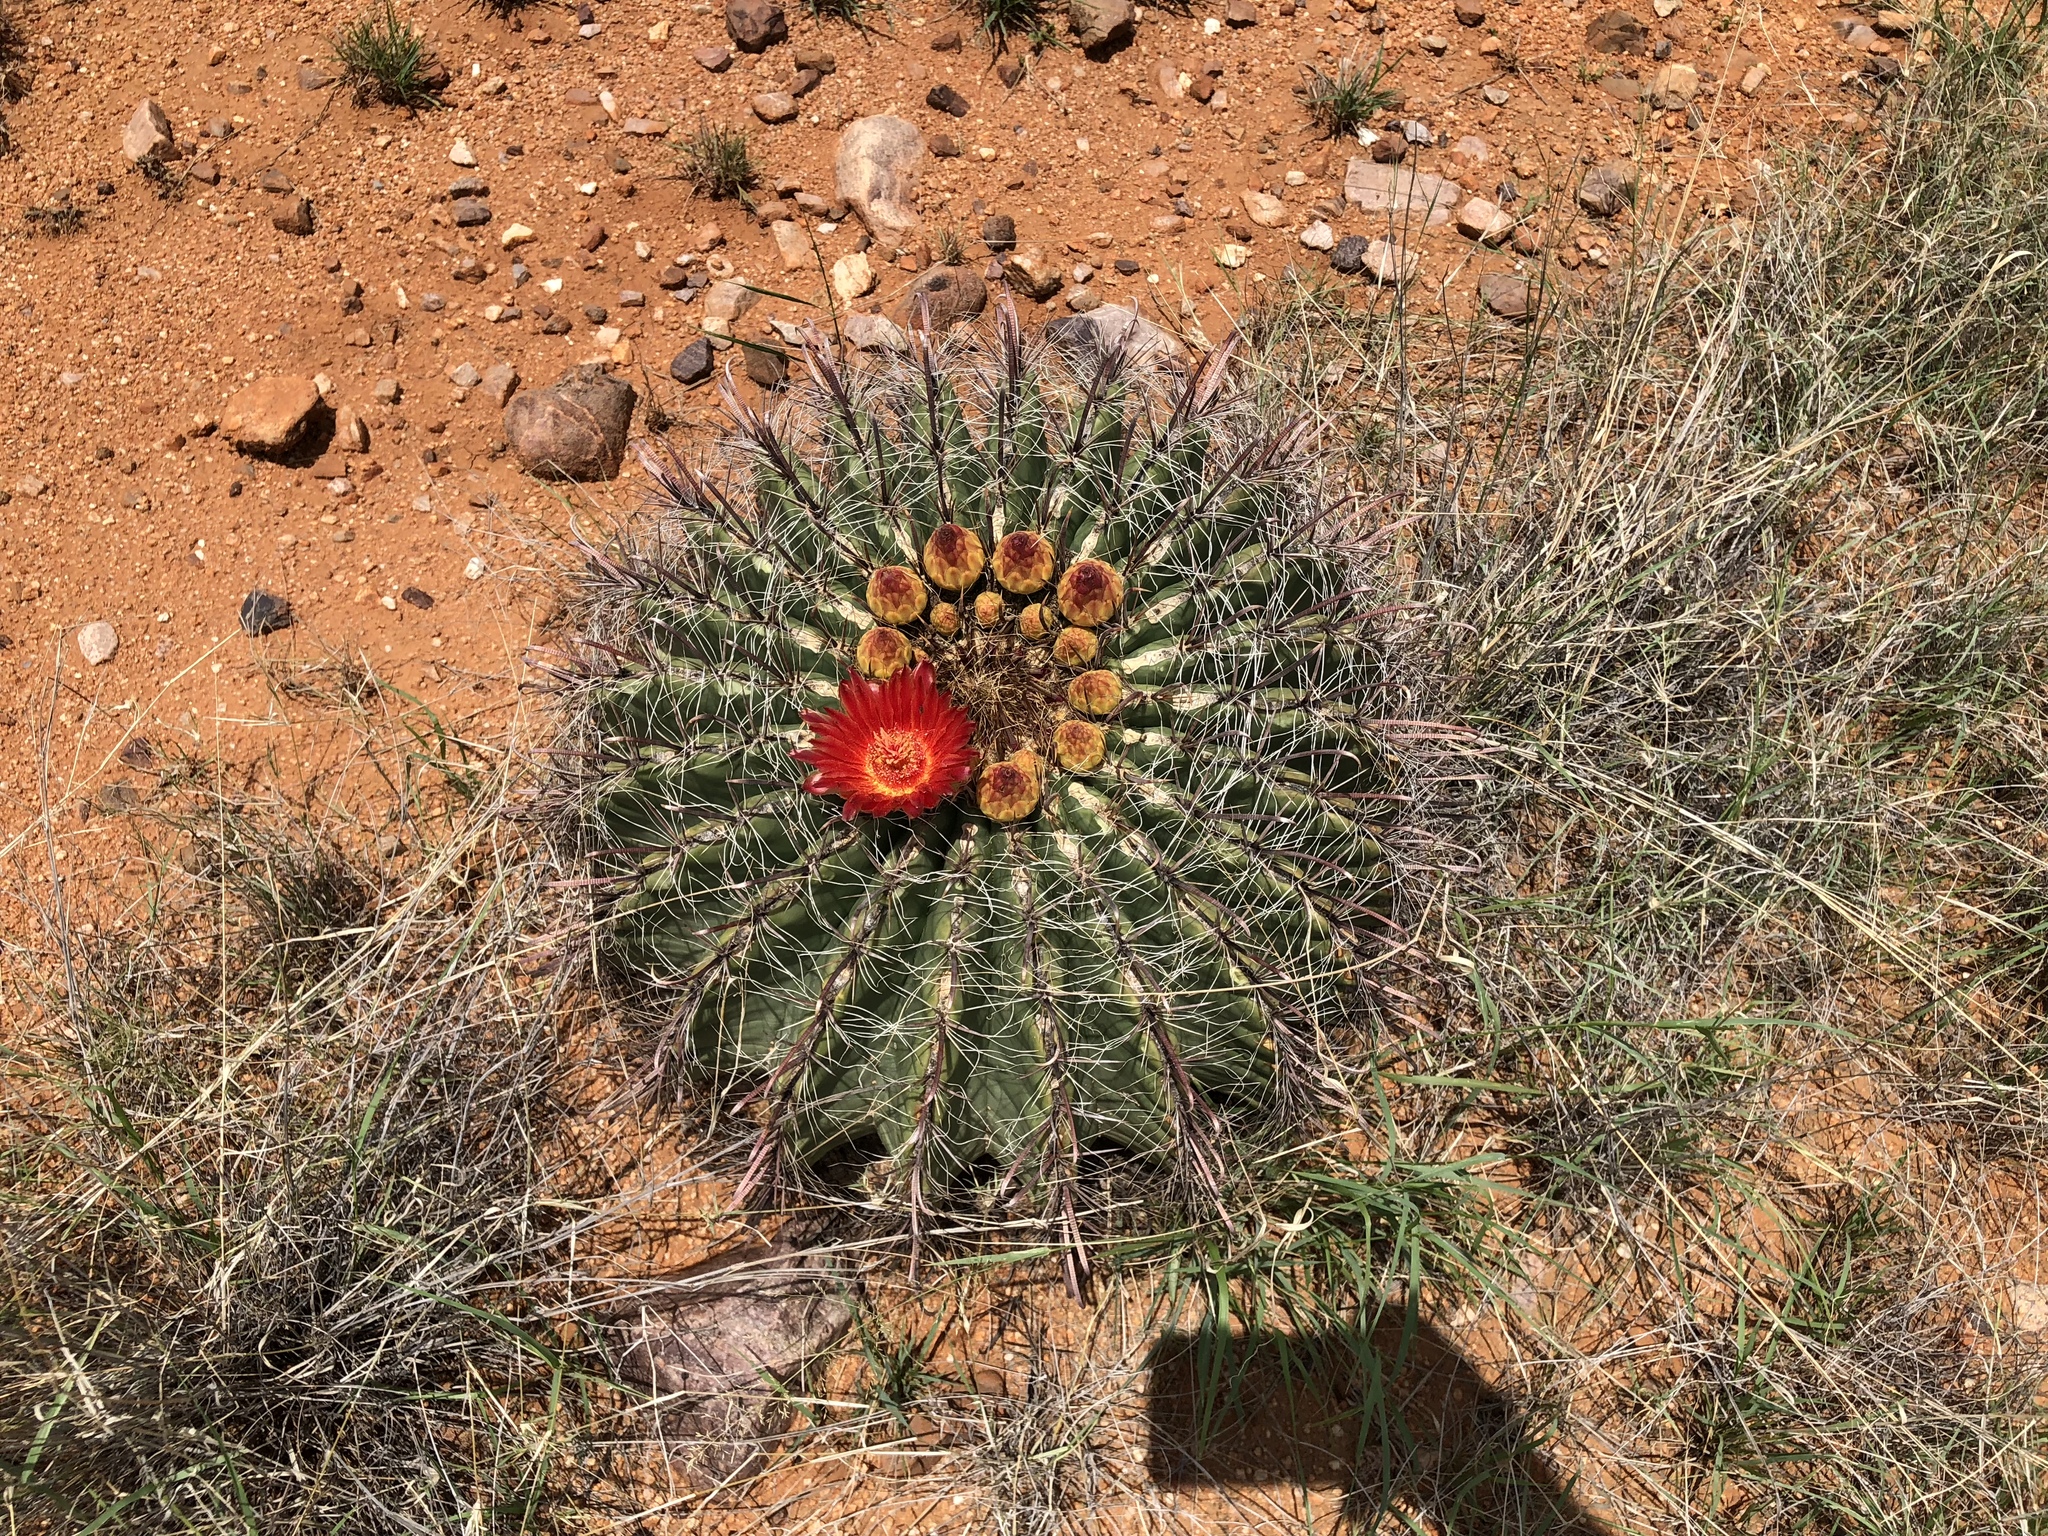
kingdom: Plantae
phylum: Tracheophyta
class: Magnoliopsida
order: Caryophyllales
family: Cactaceae
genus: Ferocactus
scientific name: Ferocactus wislizeni
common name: Candy barrel cactus
